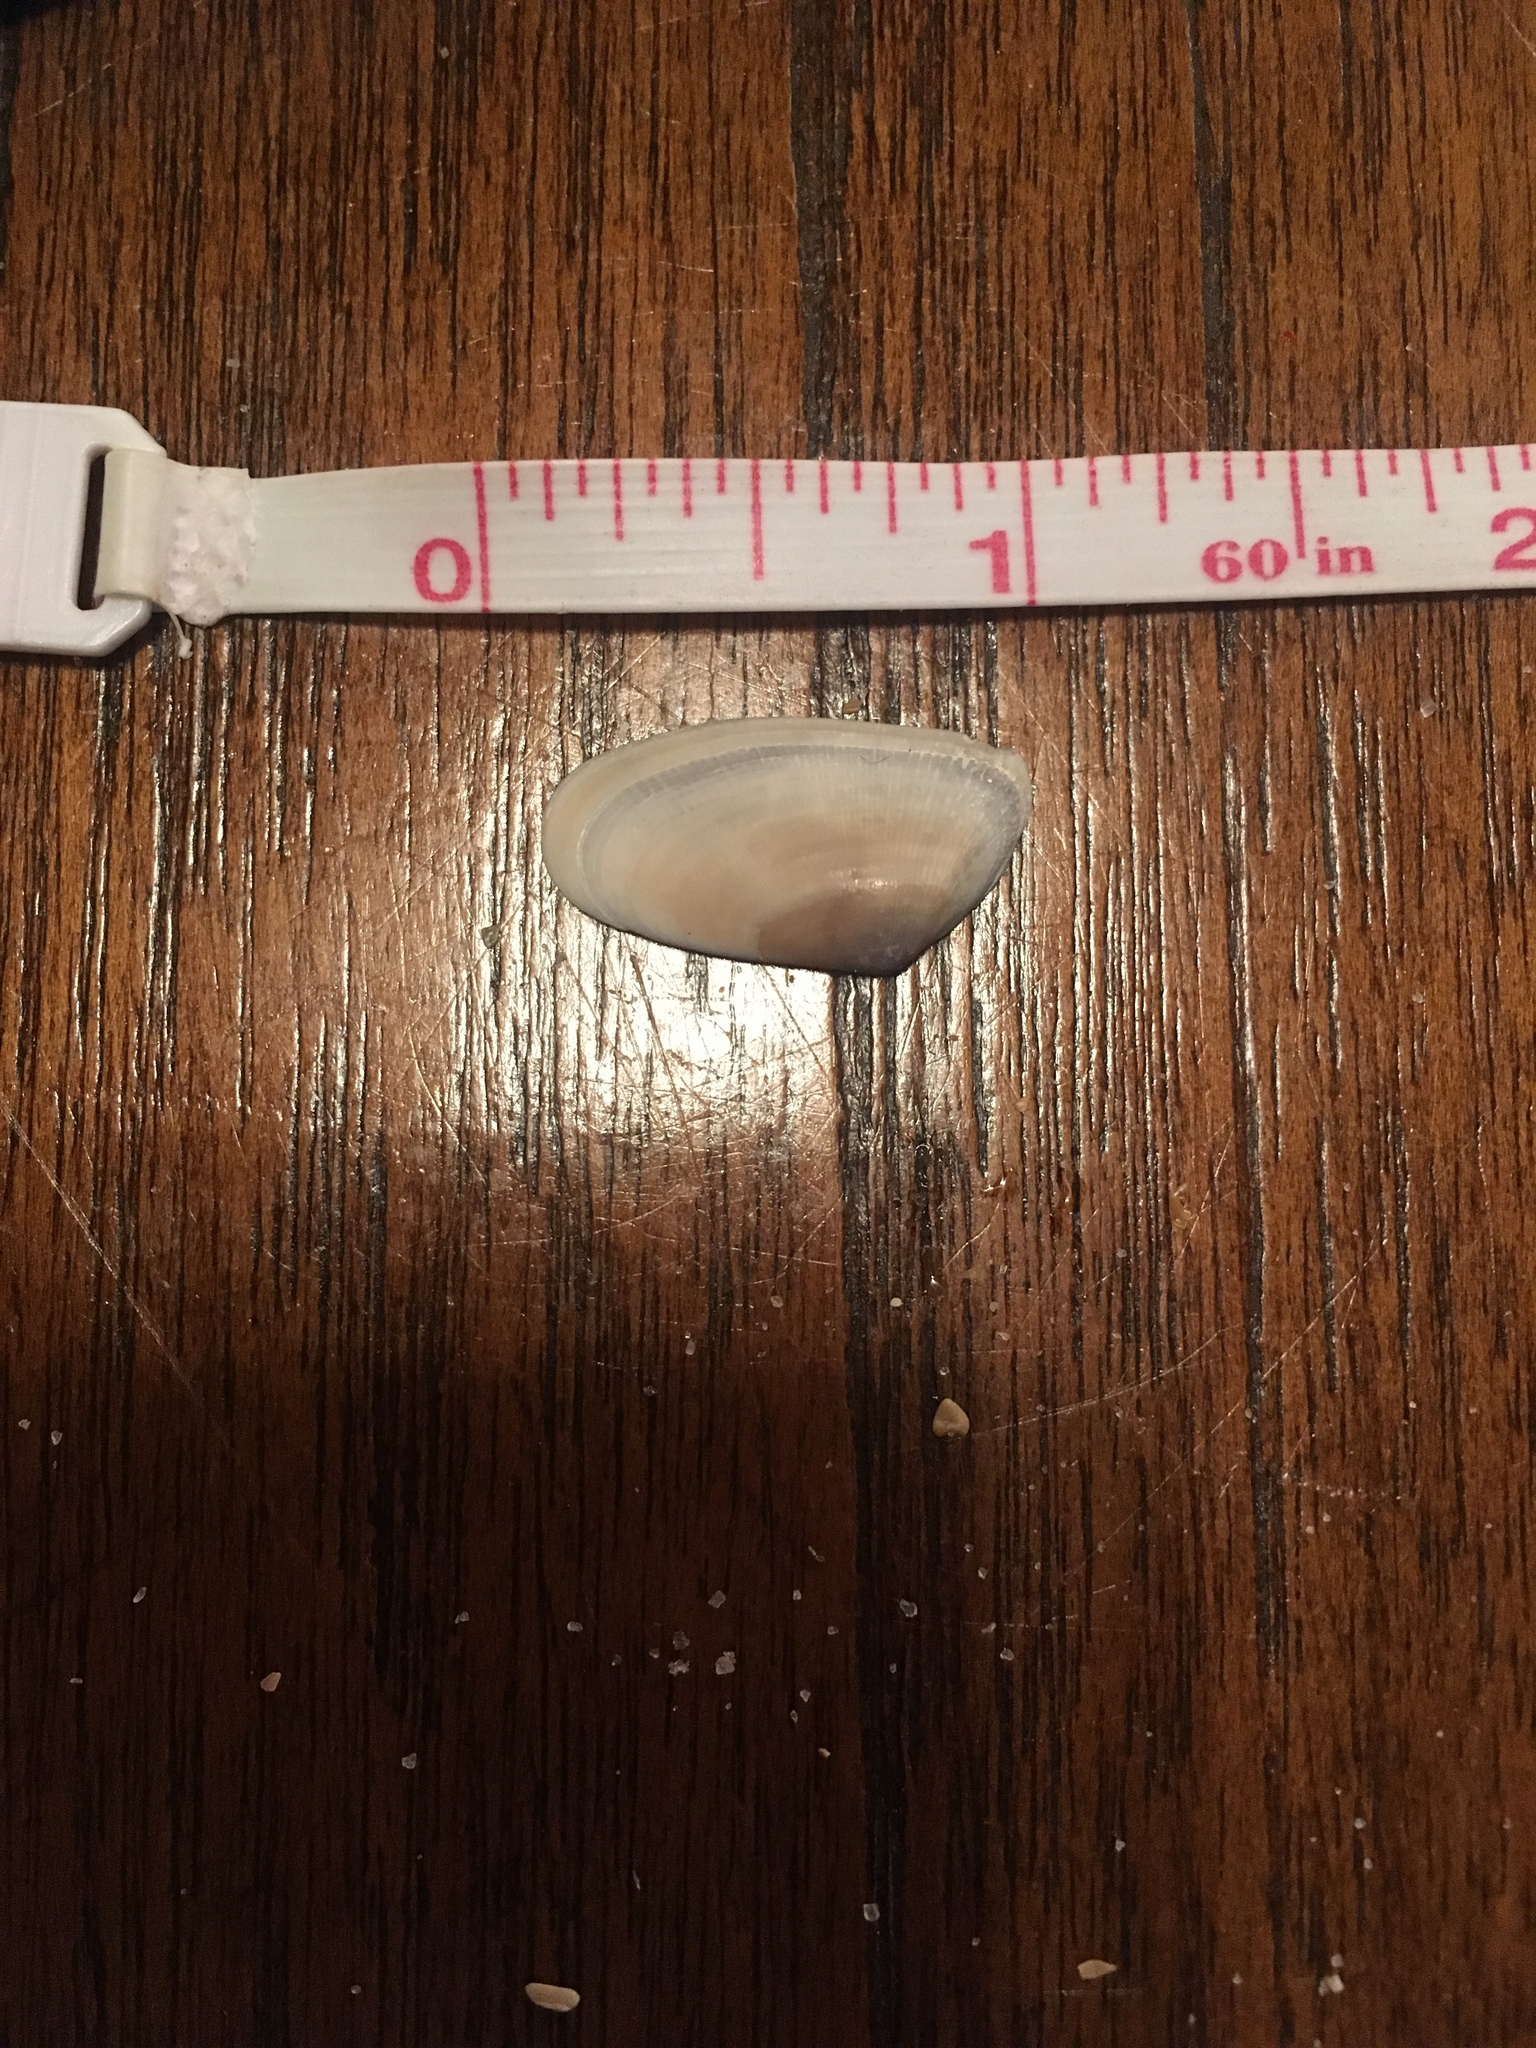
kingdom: Animalia
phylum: Mollusca
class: Bivalvia
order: Cardiida
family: Donacidae
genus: Donax
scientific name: Donax variabilis
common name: Butterfly shell
